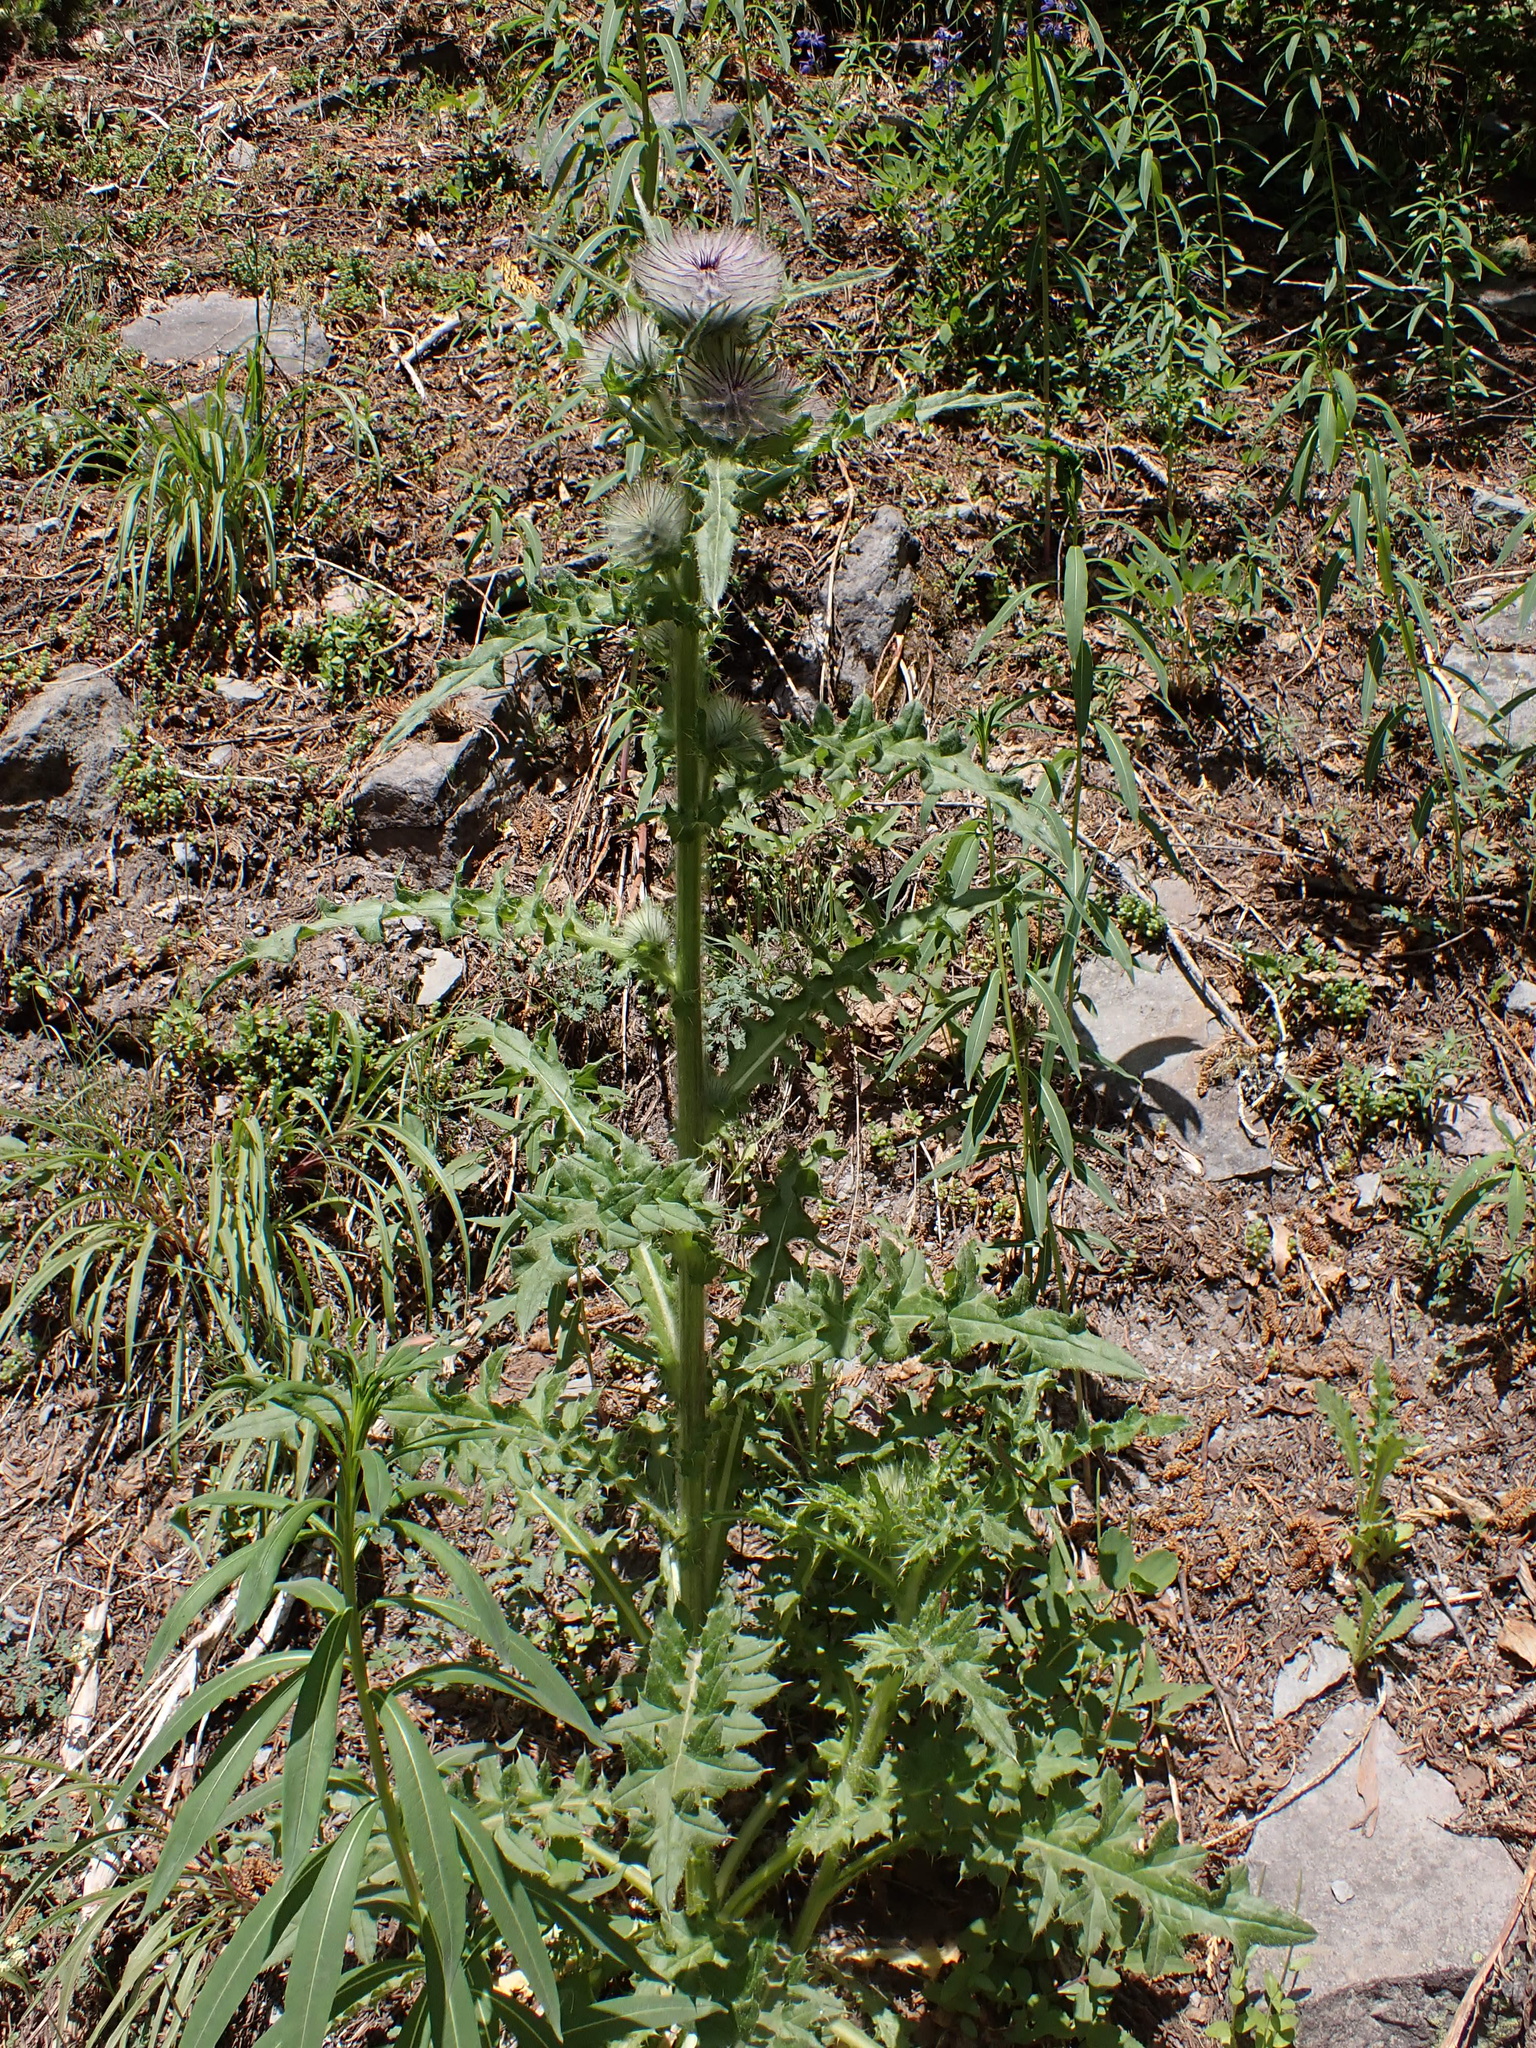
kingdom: Plantae
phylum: Tracheophyta
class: Magnoliopsida
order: Asterales
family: Asteraceae
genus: Cirsium
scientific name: Cirsium edule
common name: Indian thistle
